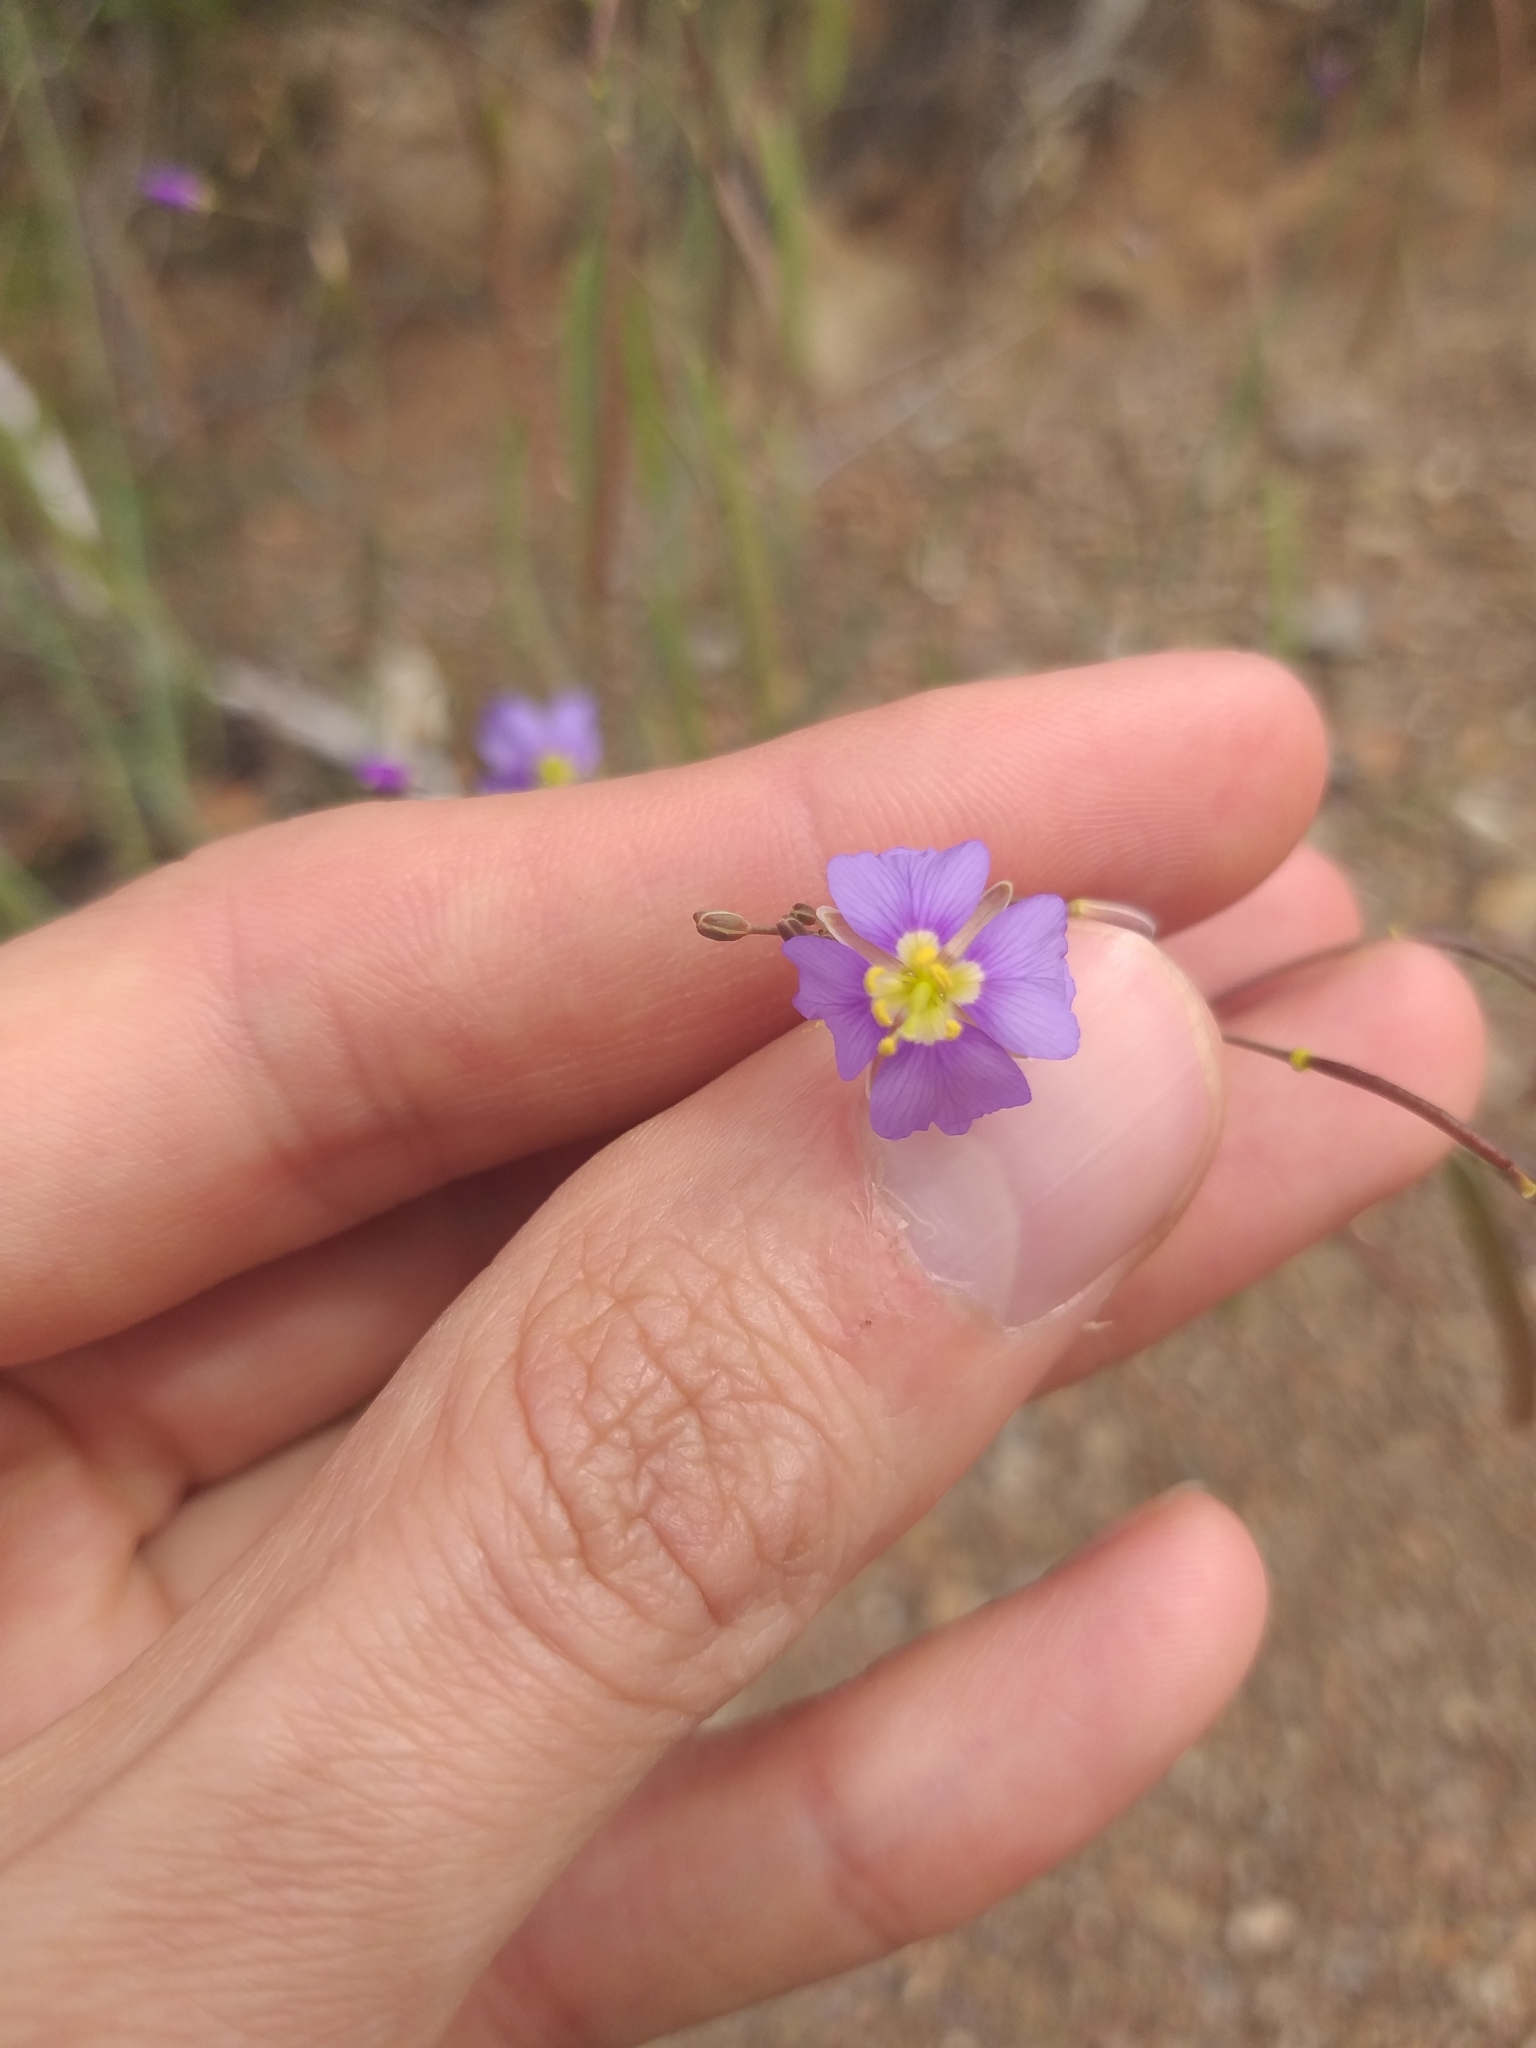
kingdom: Plantae
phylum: Tracheophyta
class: Magnoliopsida
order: Brassicales
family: Brassicaceae
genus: Heliophila
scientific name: Heliophila trifurca
